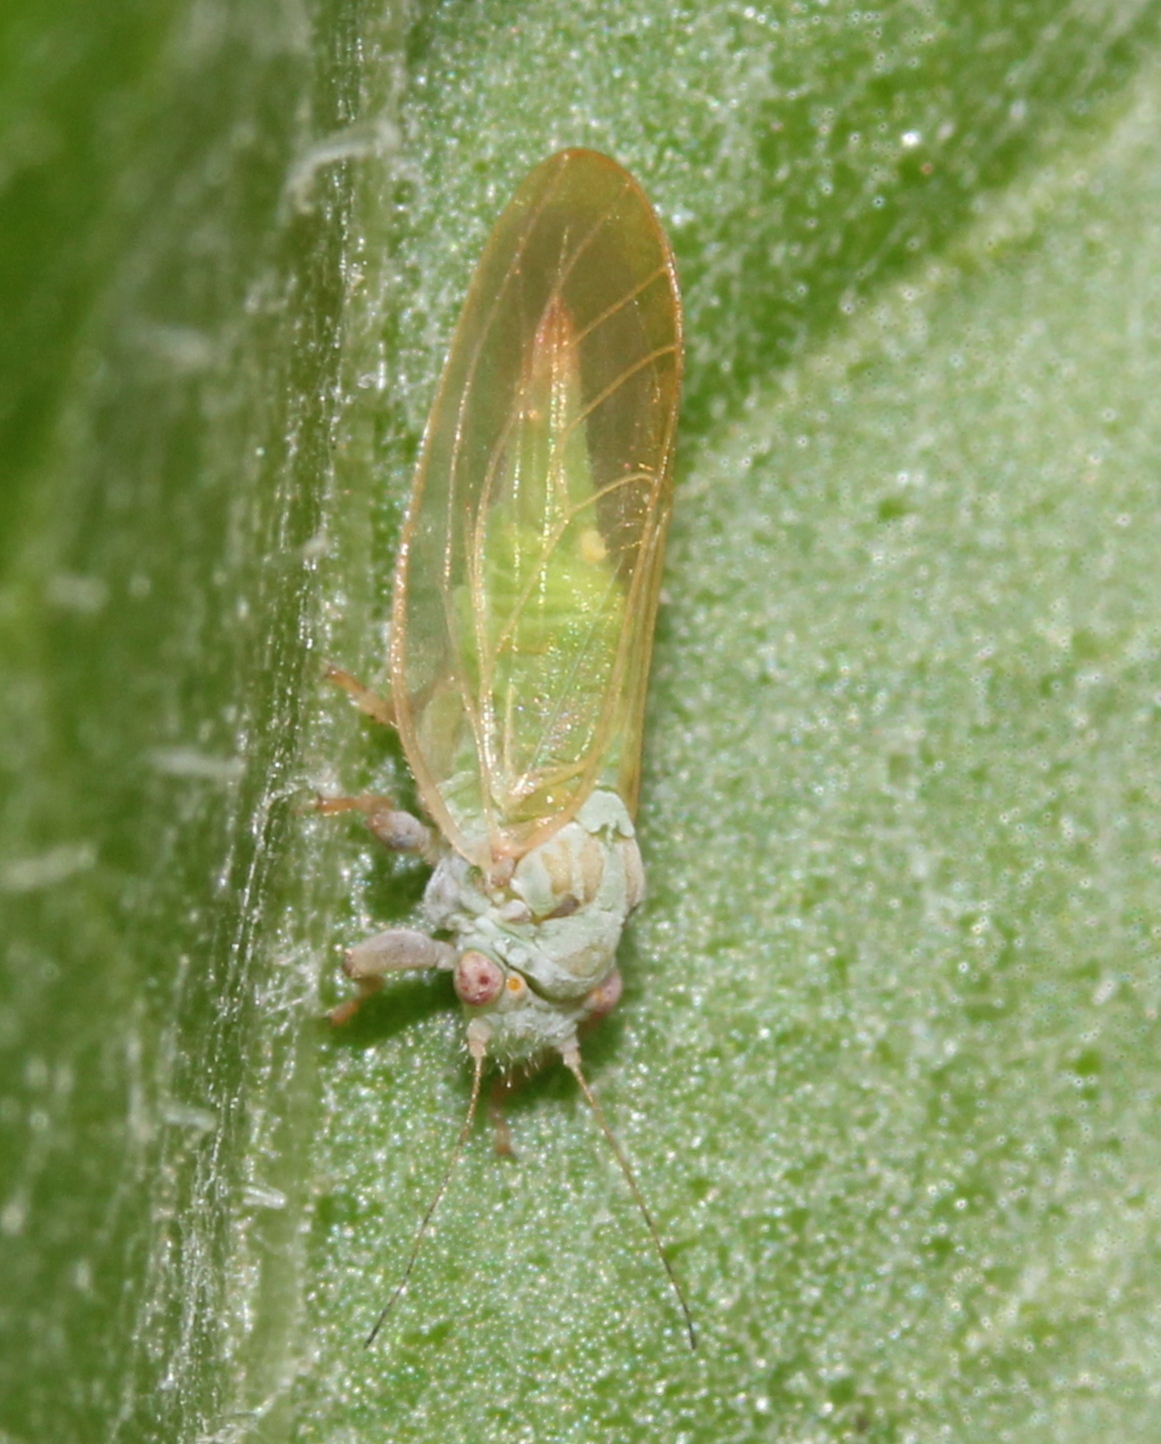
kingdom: Animalia
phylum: Arthropoda
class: Insecta
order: Hemiptera
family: Psyllidae
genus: Psylla
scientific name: Psylla buxi
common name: Boxwood psyllid
